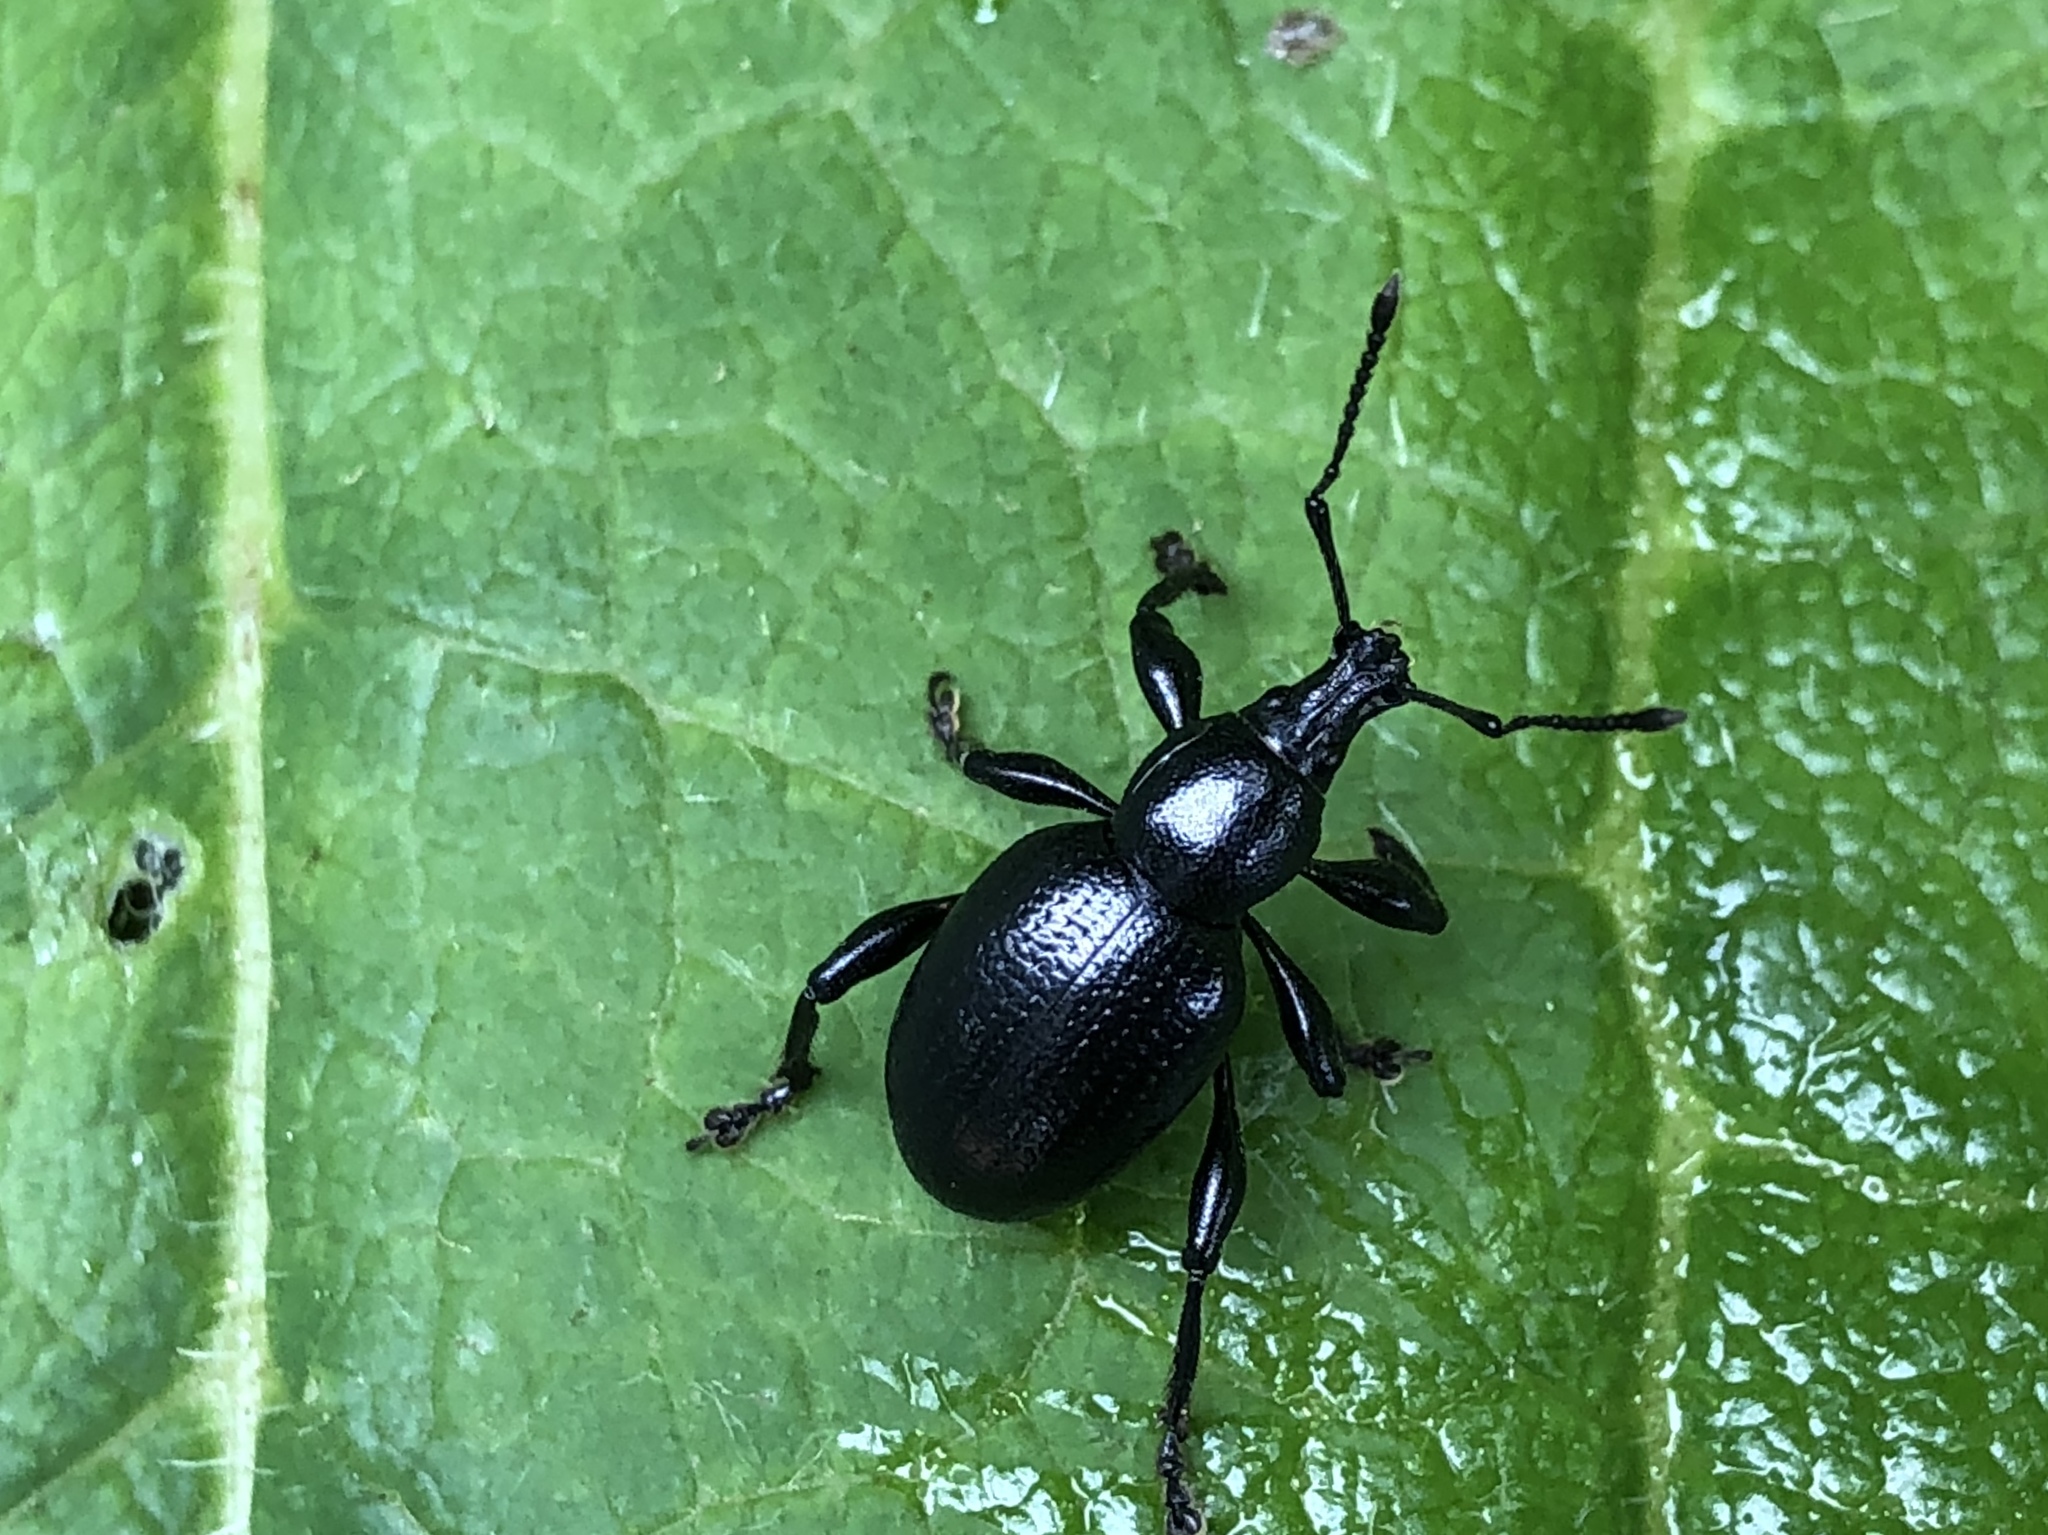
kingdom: Animalia
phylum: Arthropoda
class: Insecta
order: Coleoptera
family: Curculionidae
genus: Otiorhynchus
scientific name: Otiorhynchus morio
